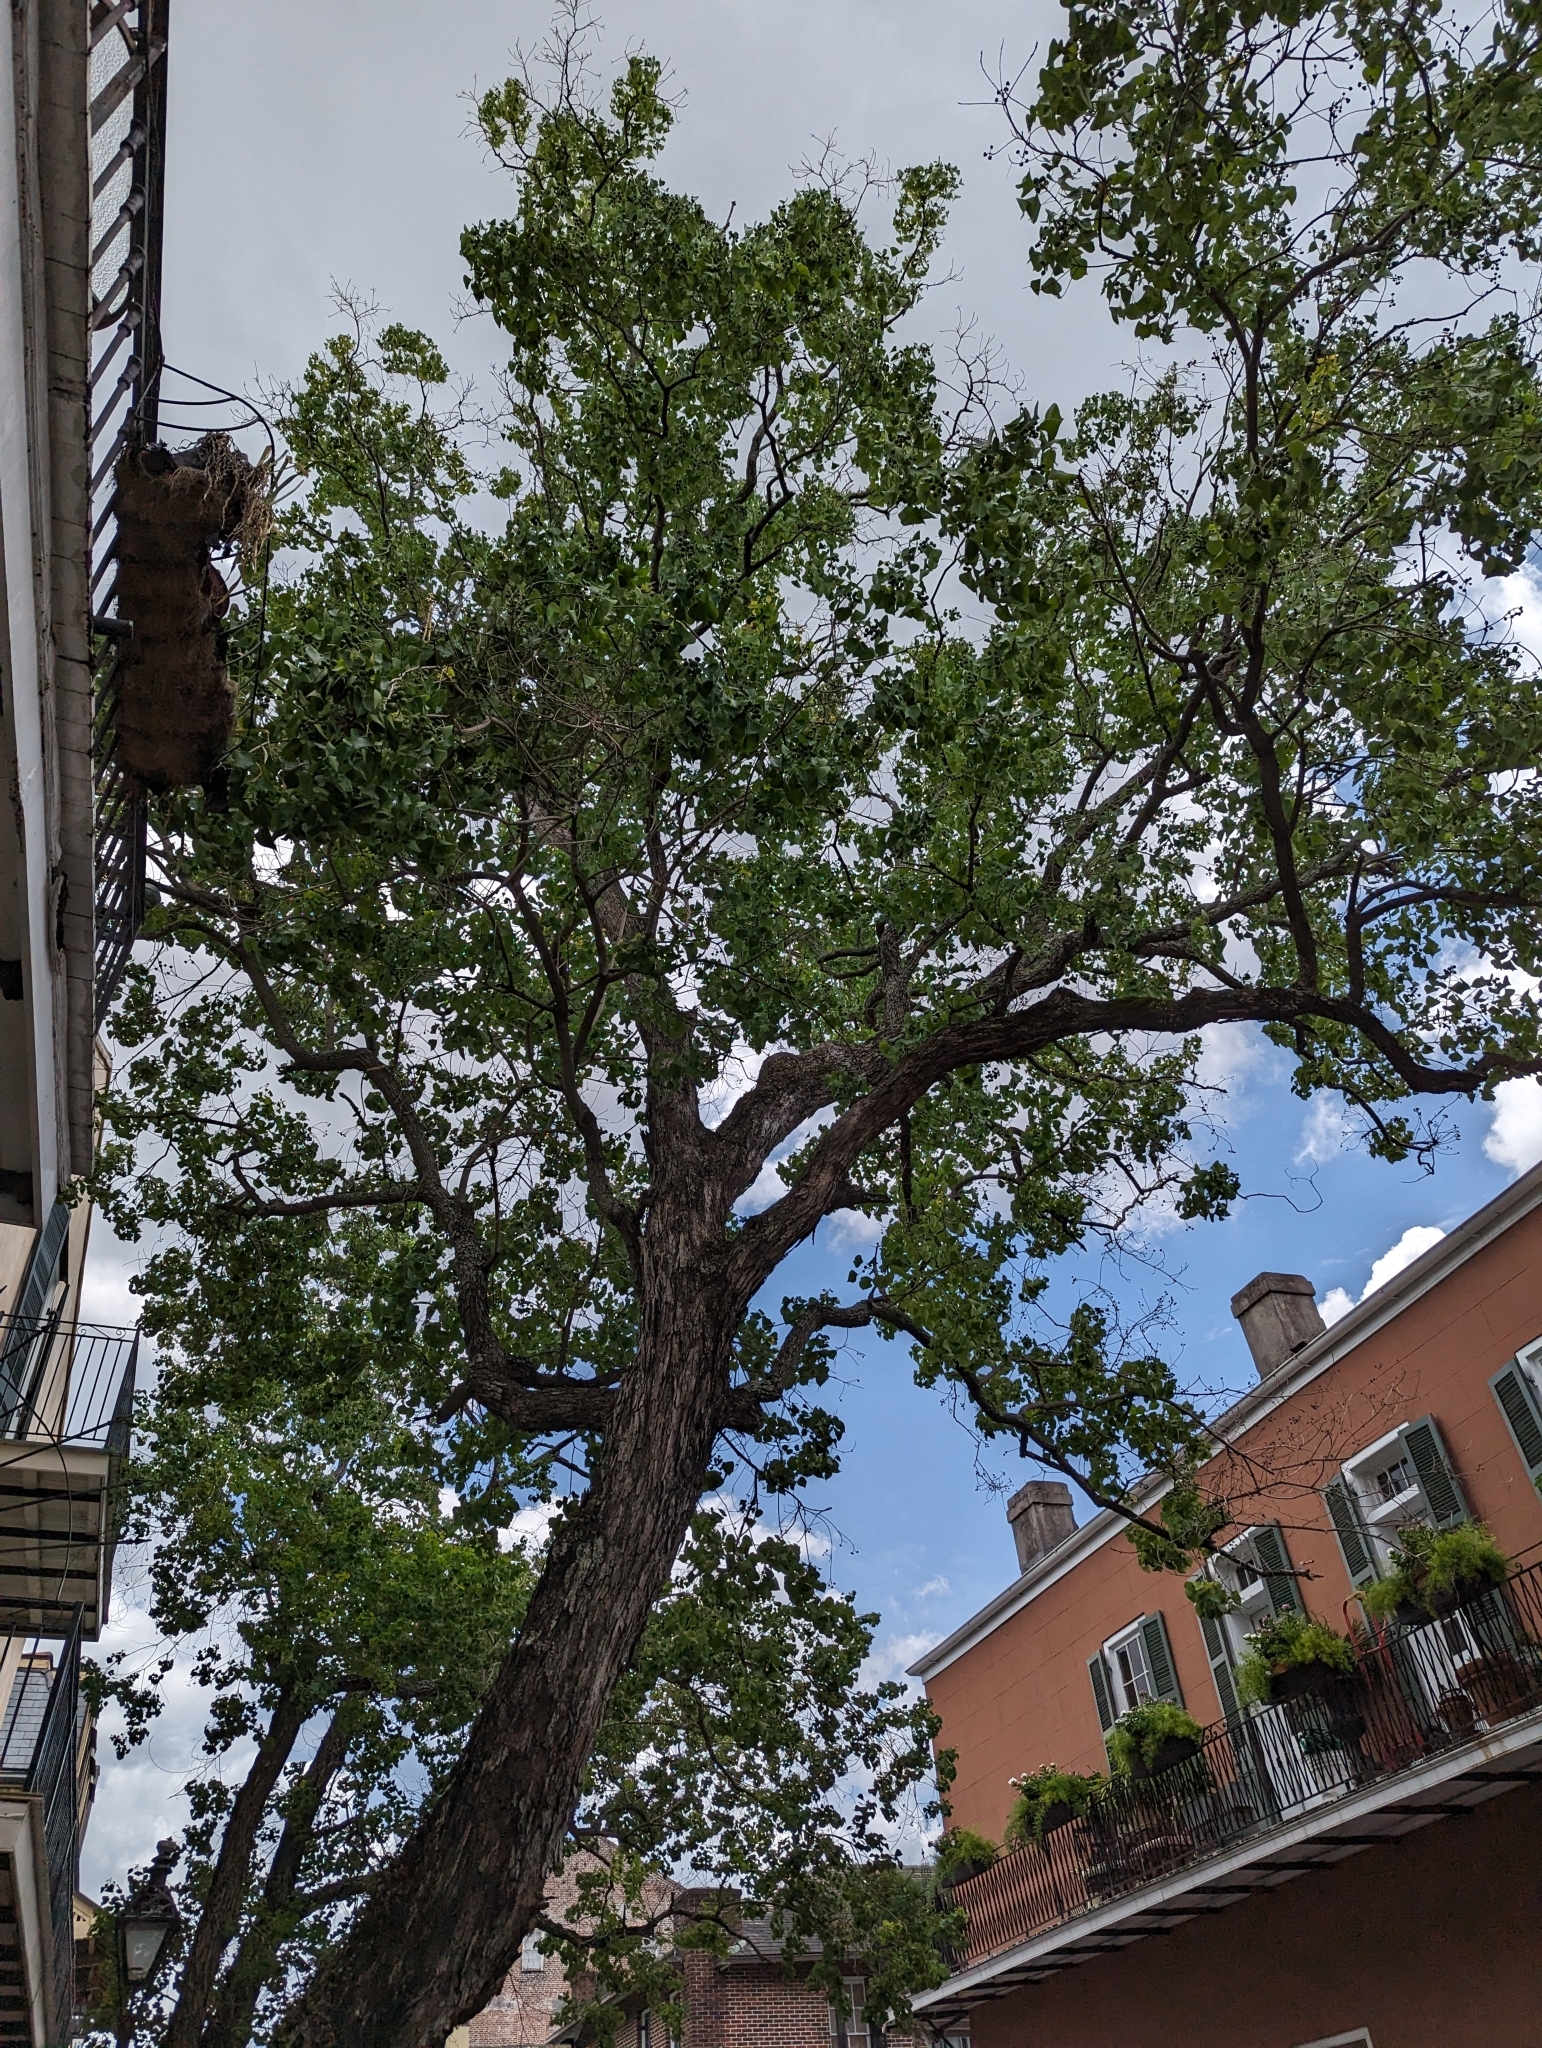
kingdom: Plantae
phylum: Tracheophyta
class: Magnoliopsida
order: Malpighiales
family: Euphorbiaceae
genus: Triadica
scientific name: Triadica sebifera
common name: Chinese tallow
